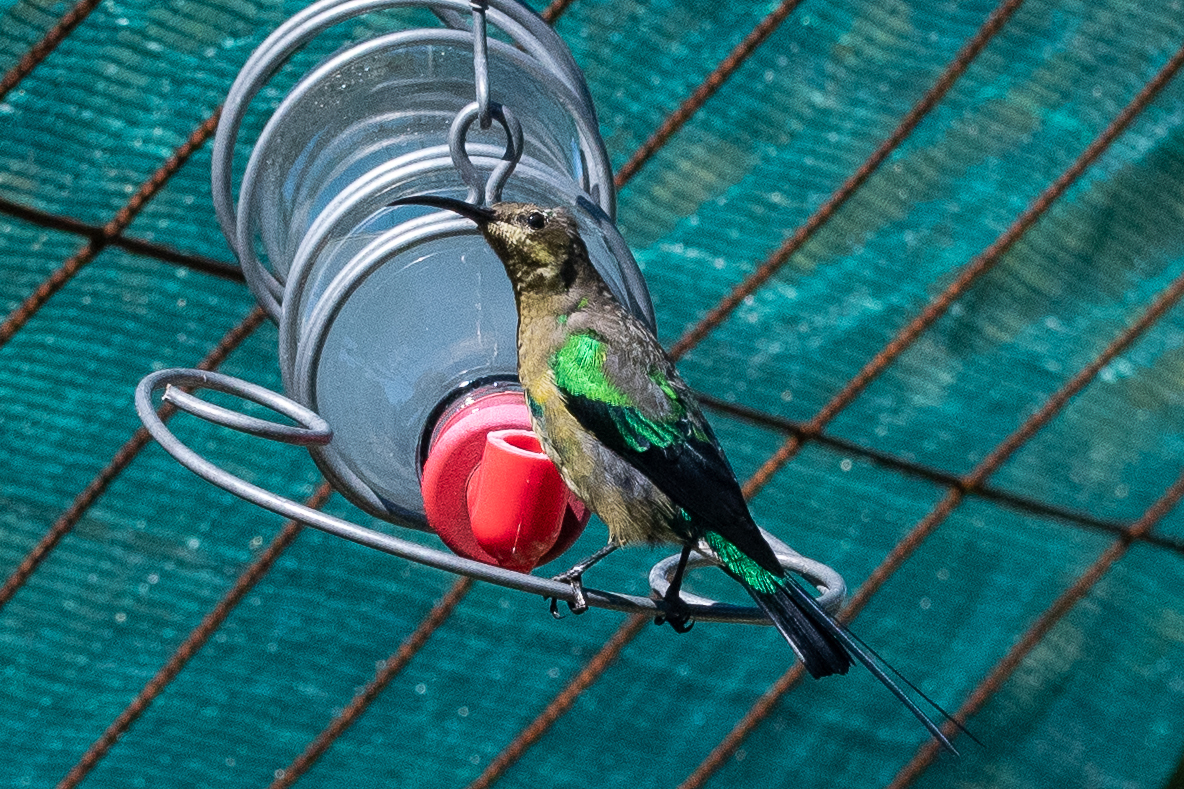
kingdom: Animalia
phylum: Chordata
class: Aves
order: Passeriformes
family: Nectariniidae
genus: Nectarinia
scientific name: Nectarinia famosa
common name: Malachite sunbird
